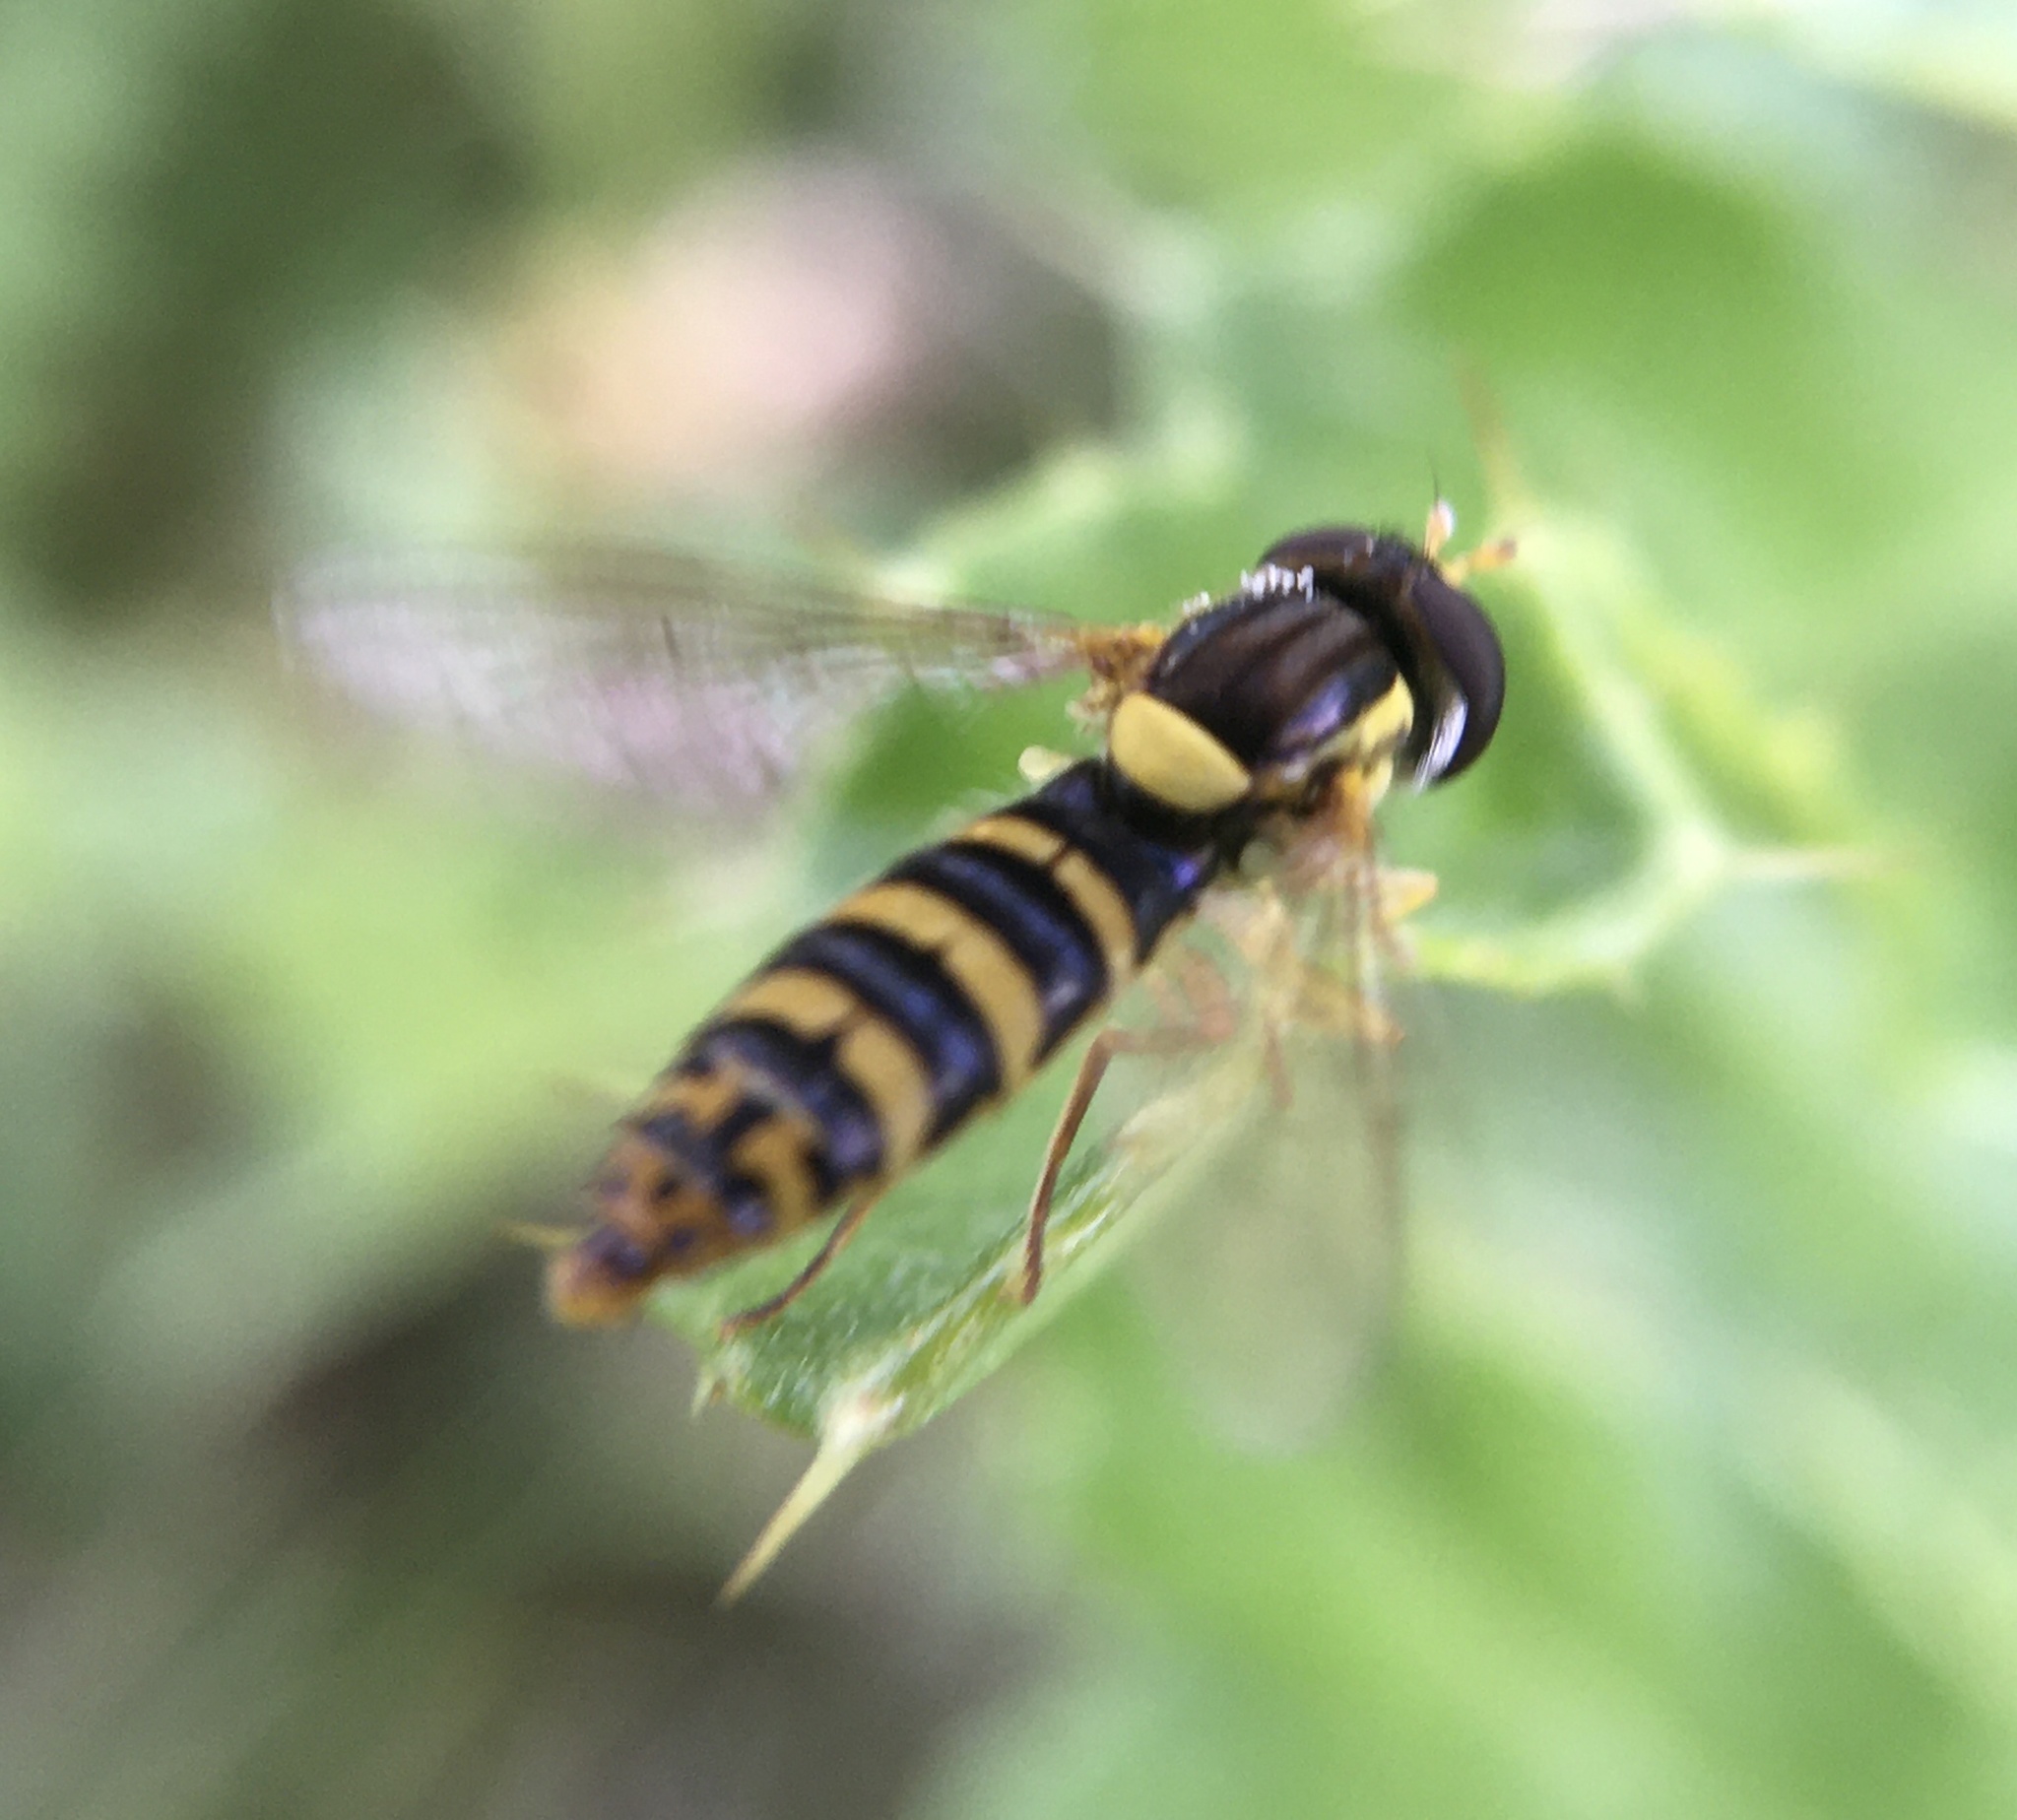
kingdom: Animalia
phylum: Arthropoda
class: Insecta
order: Diptera
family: Syrphidae
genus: Sphaerophoria
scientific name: Sphaerophoria
